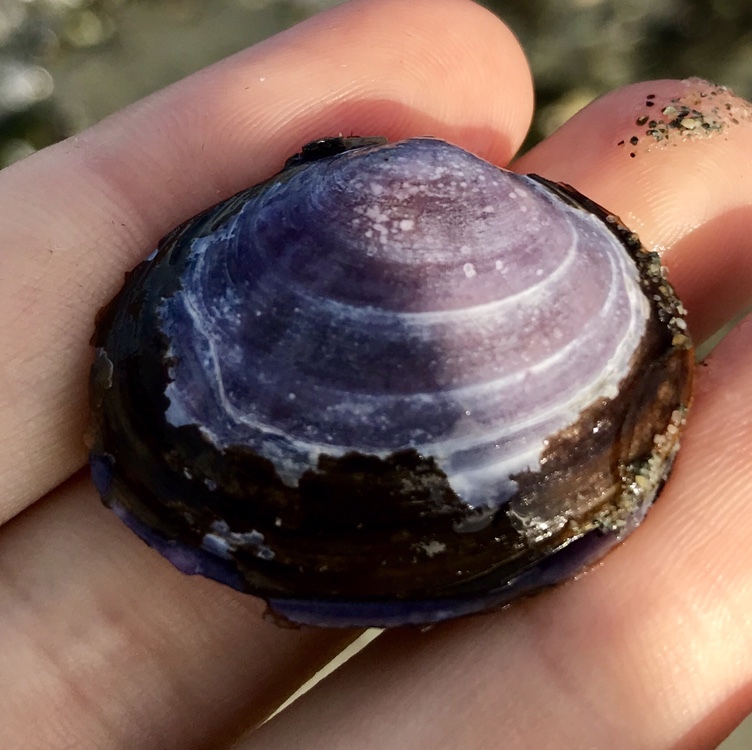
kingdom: Animalia
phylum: Mollusca
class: Bivalvia
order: Cardiida
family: Psammobiidae
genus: Nuttallia
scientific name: Nuttallia obscurata
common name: Purple mahogany-clam
